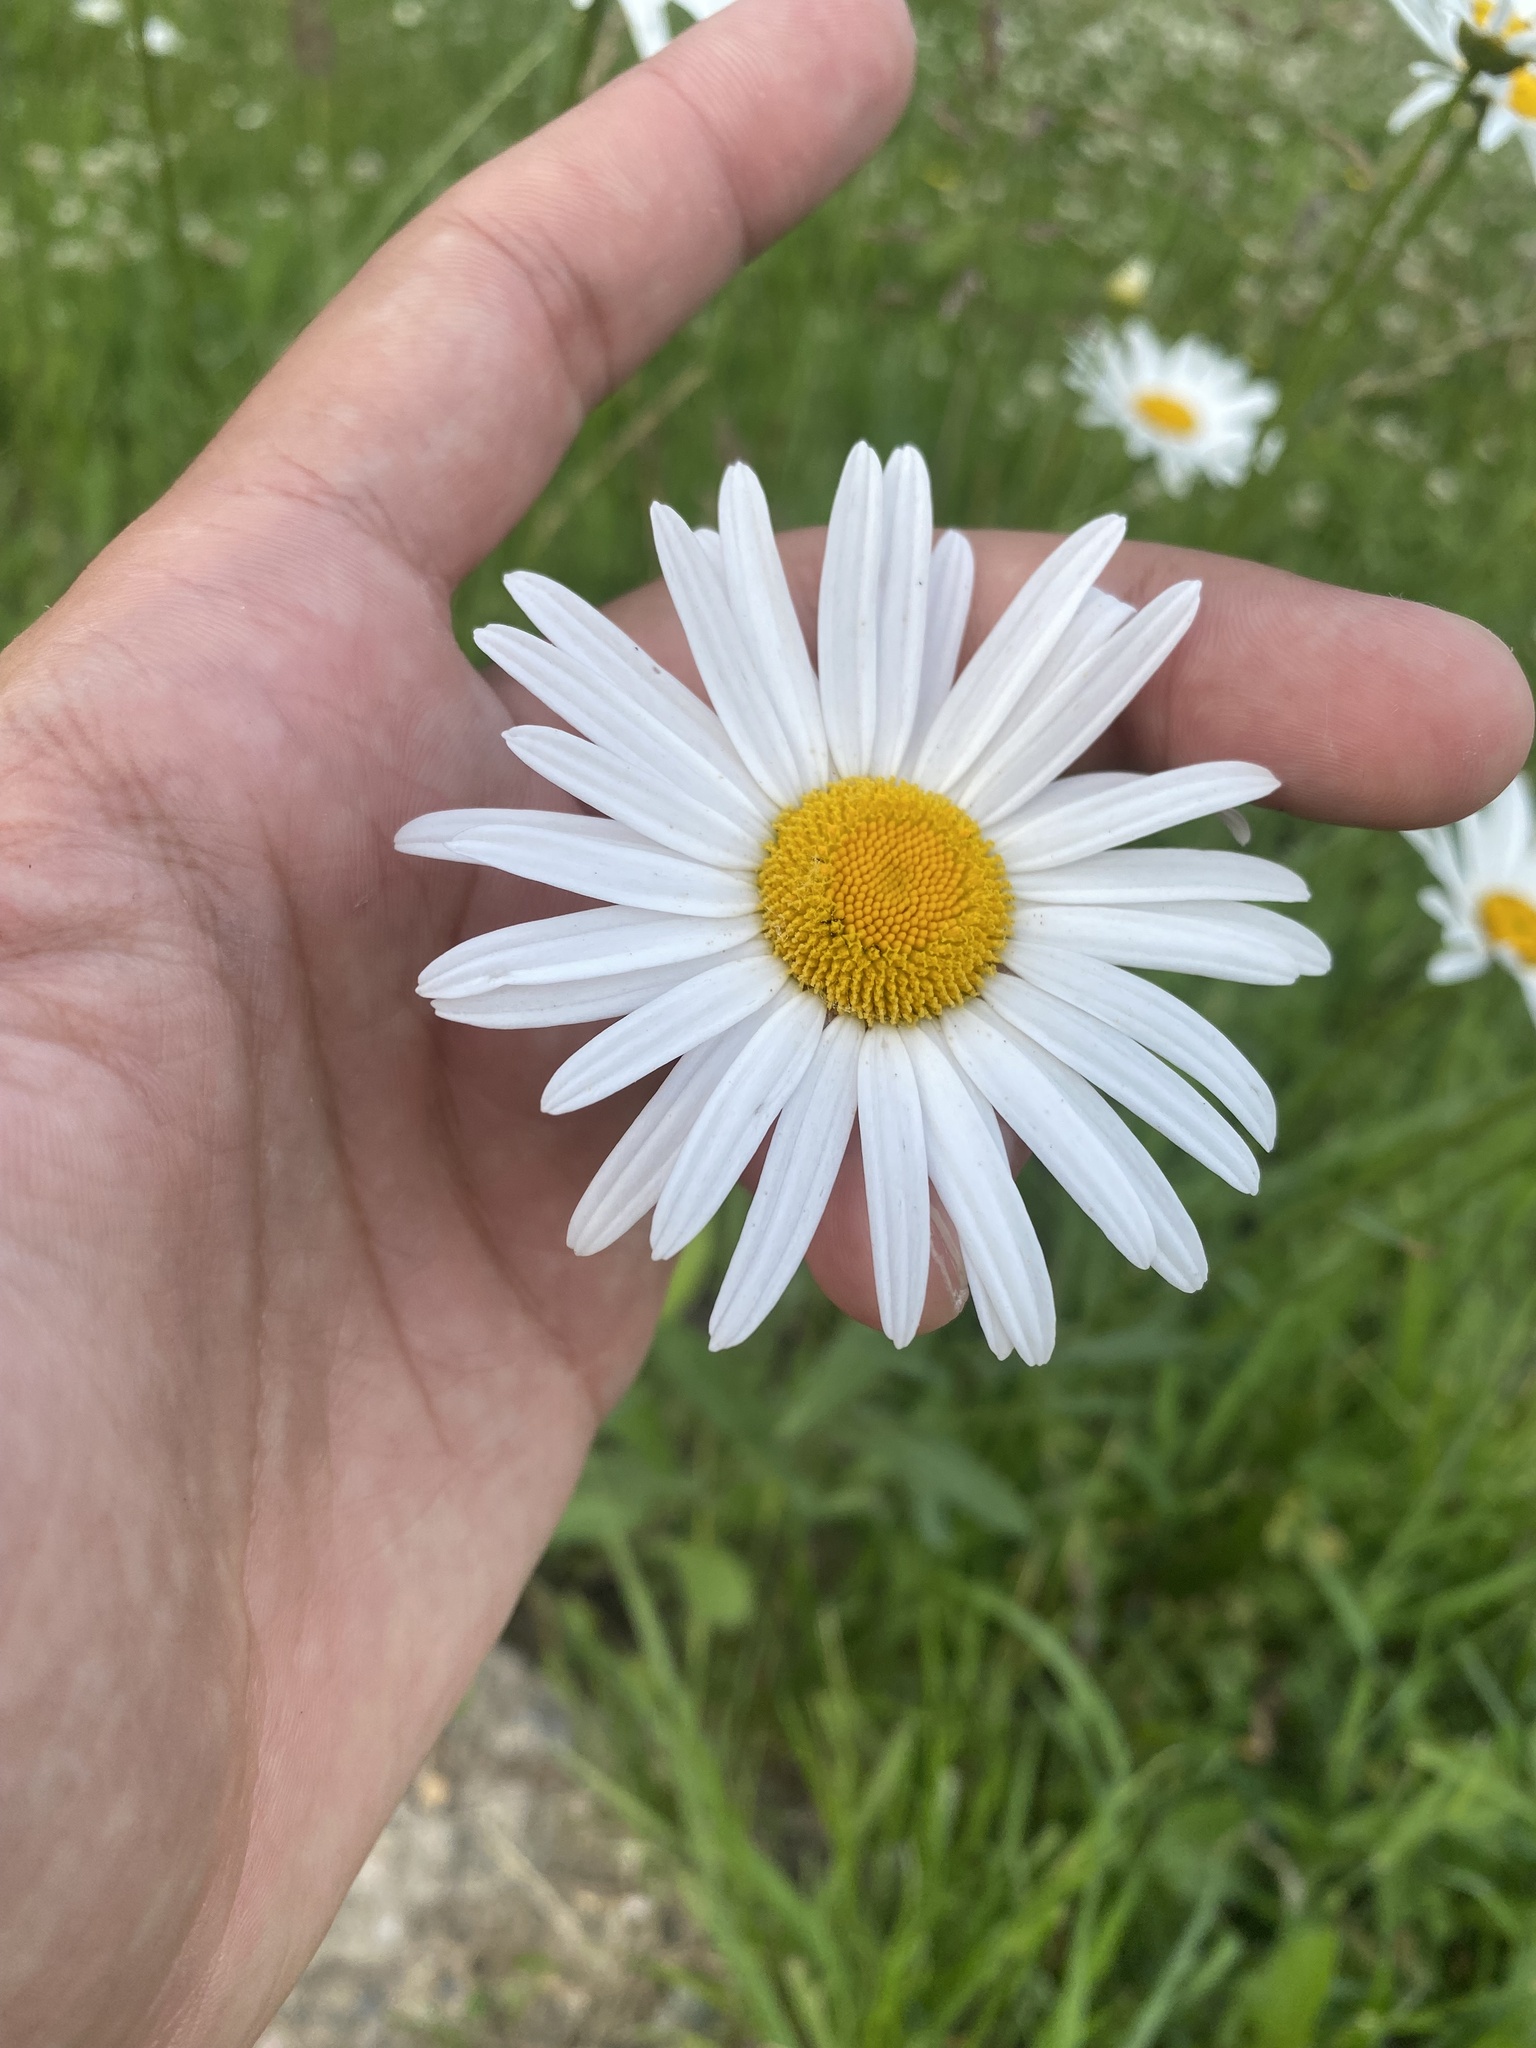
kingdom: Plantae
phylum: Tracheophyta
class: Magnoliopsida
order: Asterales
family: Asteraceae
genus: Leucanthemum
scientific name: Leucanthemum vulgare
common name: Oxeye daisy
